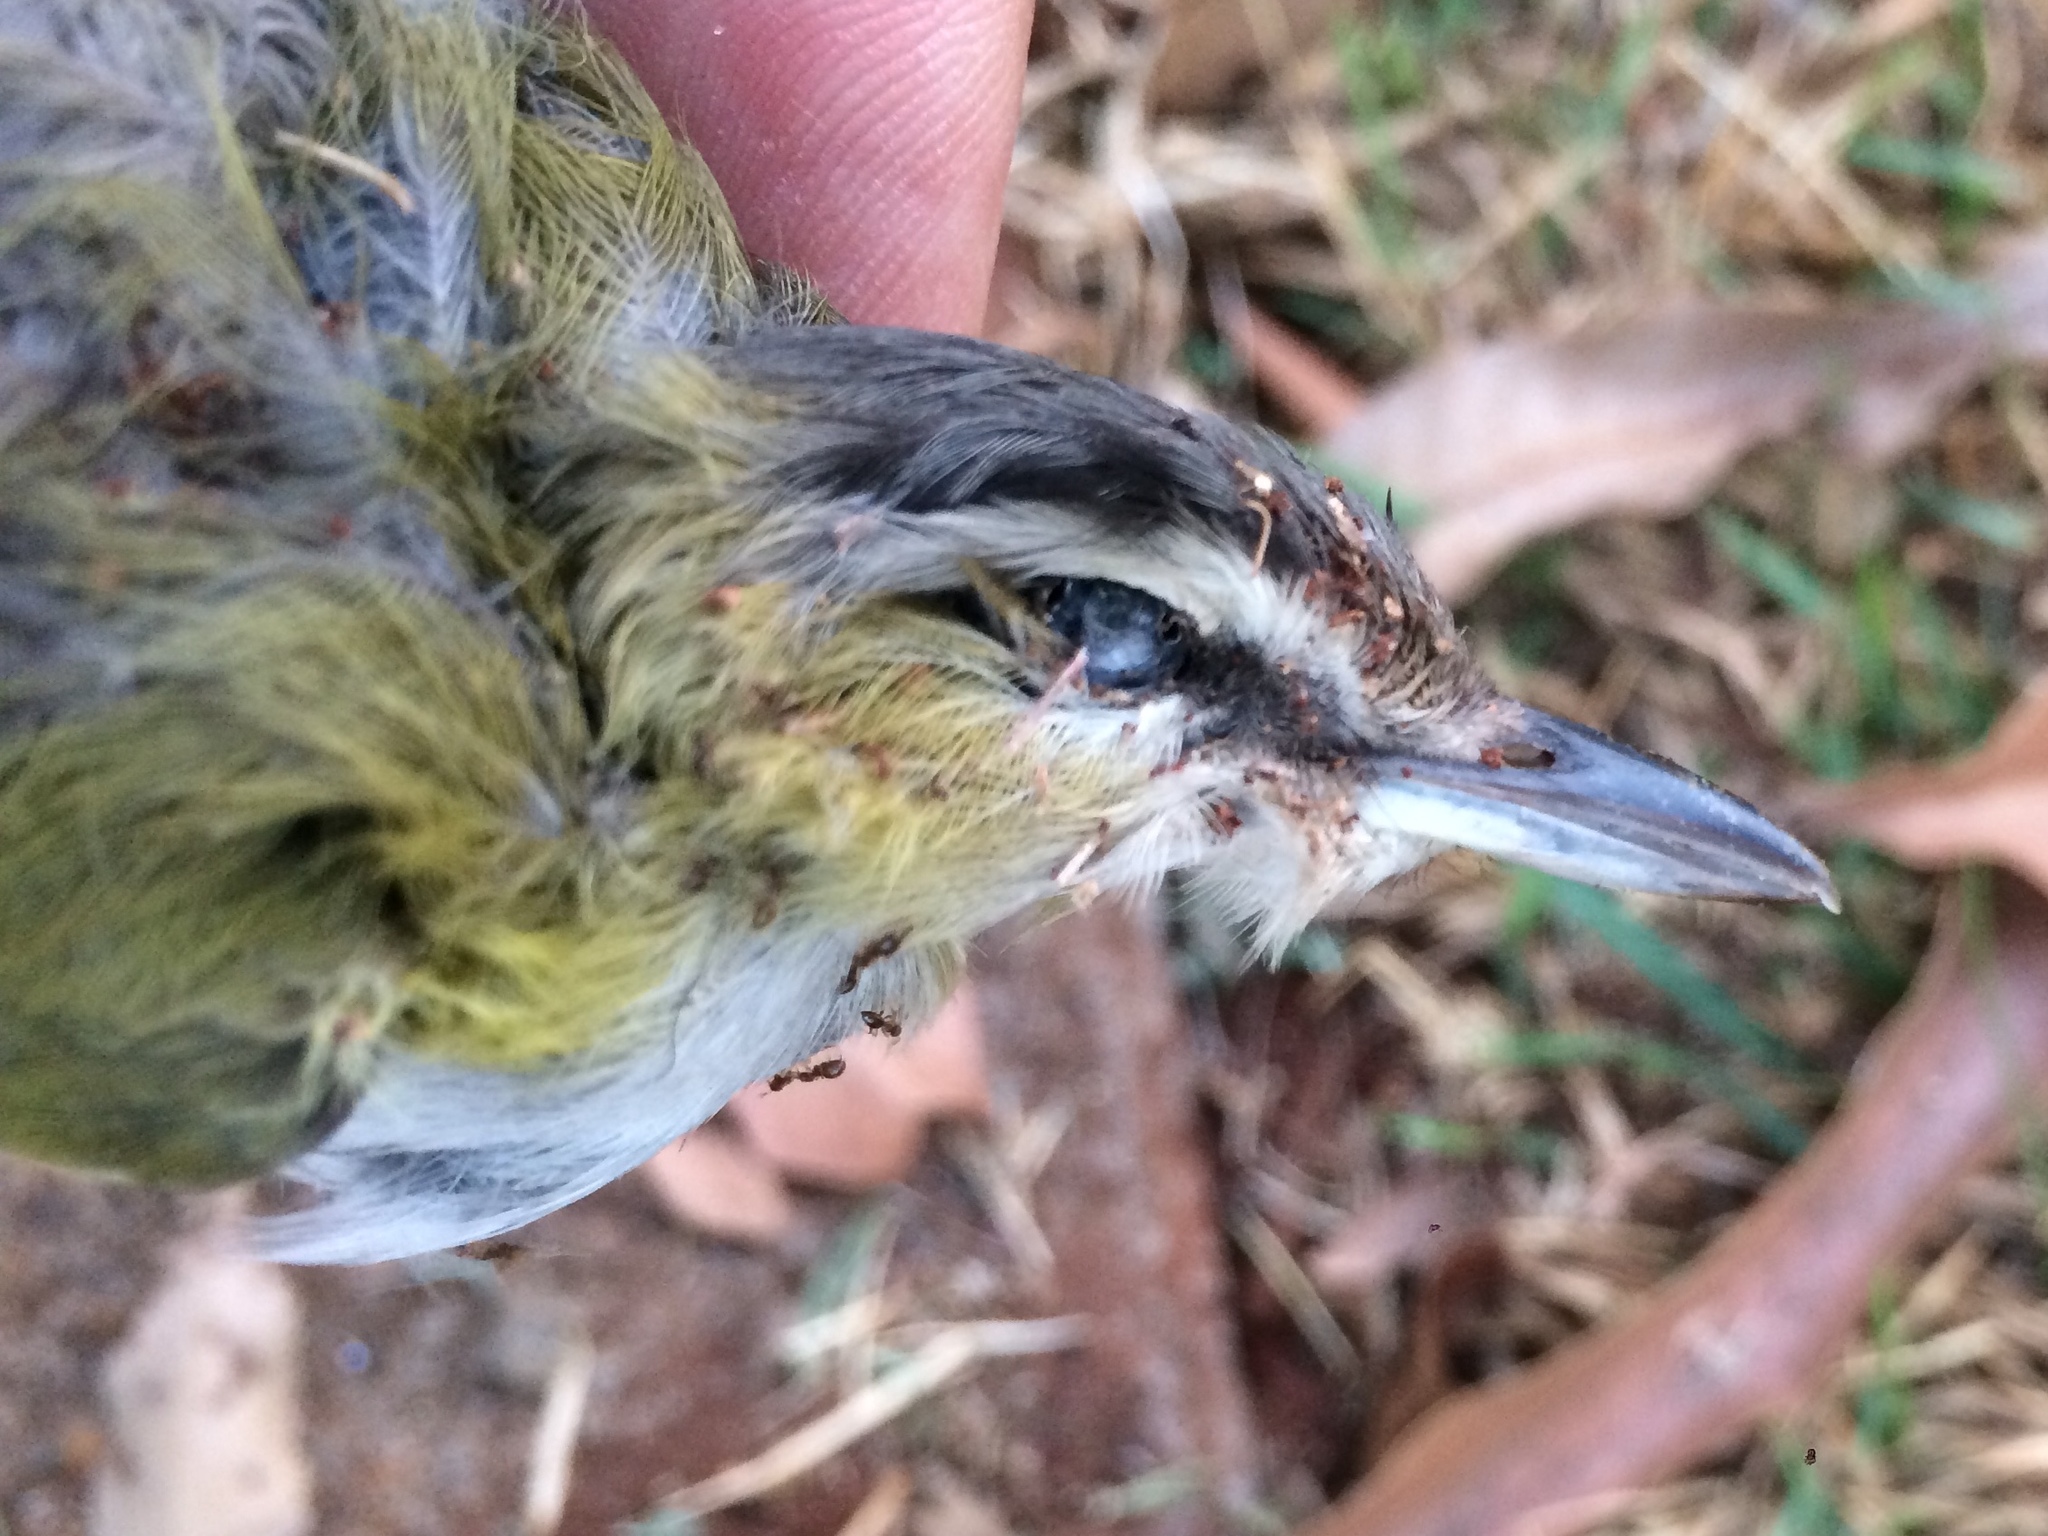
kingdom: Animalia
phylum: Chordata
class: Aves
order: Passeriformes
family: Vireonidae
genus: Vireo
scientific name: Vireo olivaceus
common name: Red-eyed vireo
